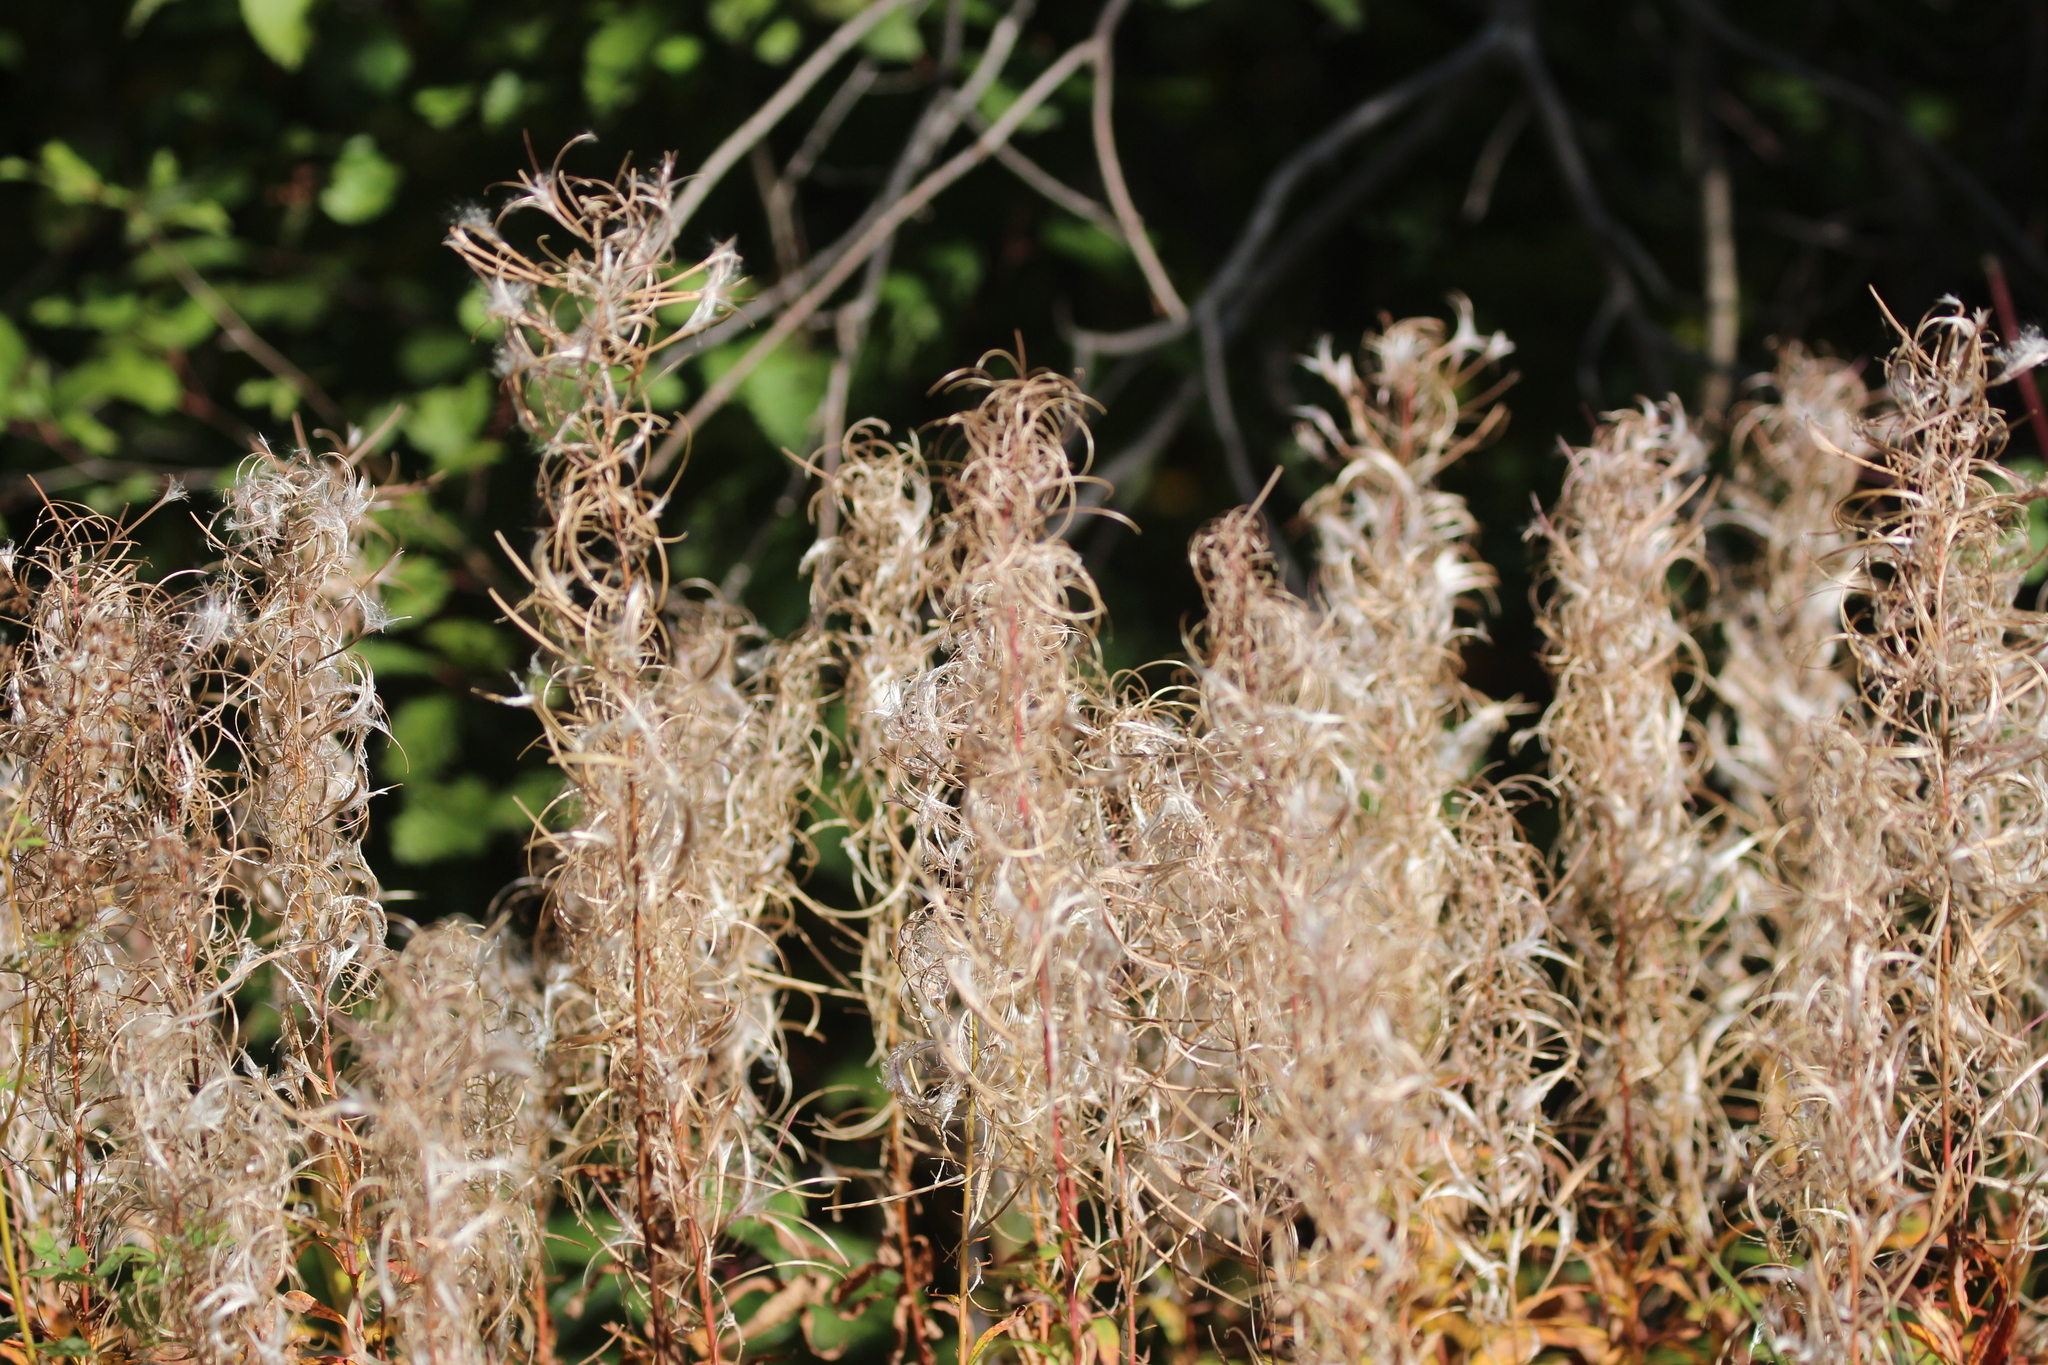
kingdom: Plantae
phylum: Tracheophyta
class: Magnoliopsida
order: Myrtales
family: Onagraceae
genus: Chamaenerion
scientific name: Chamaenerion angustifolium
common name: Fireweed
